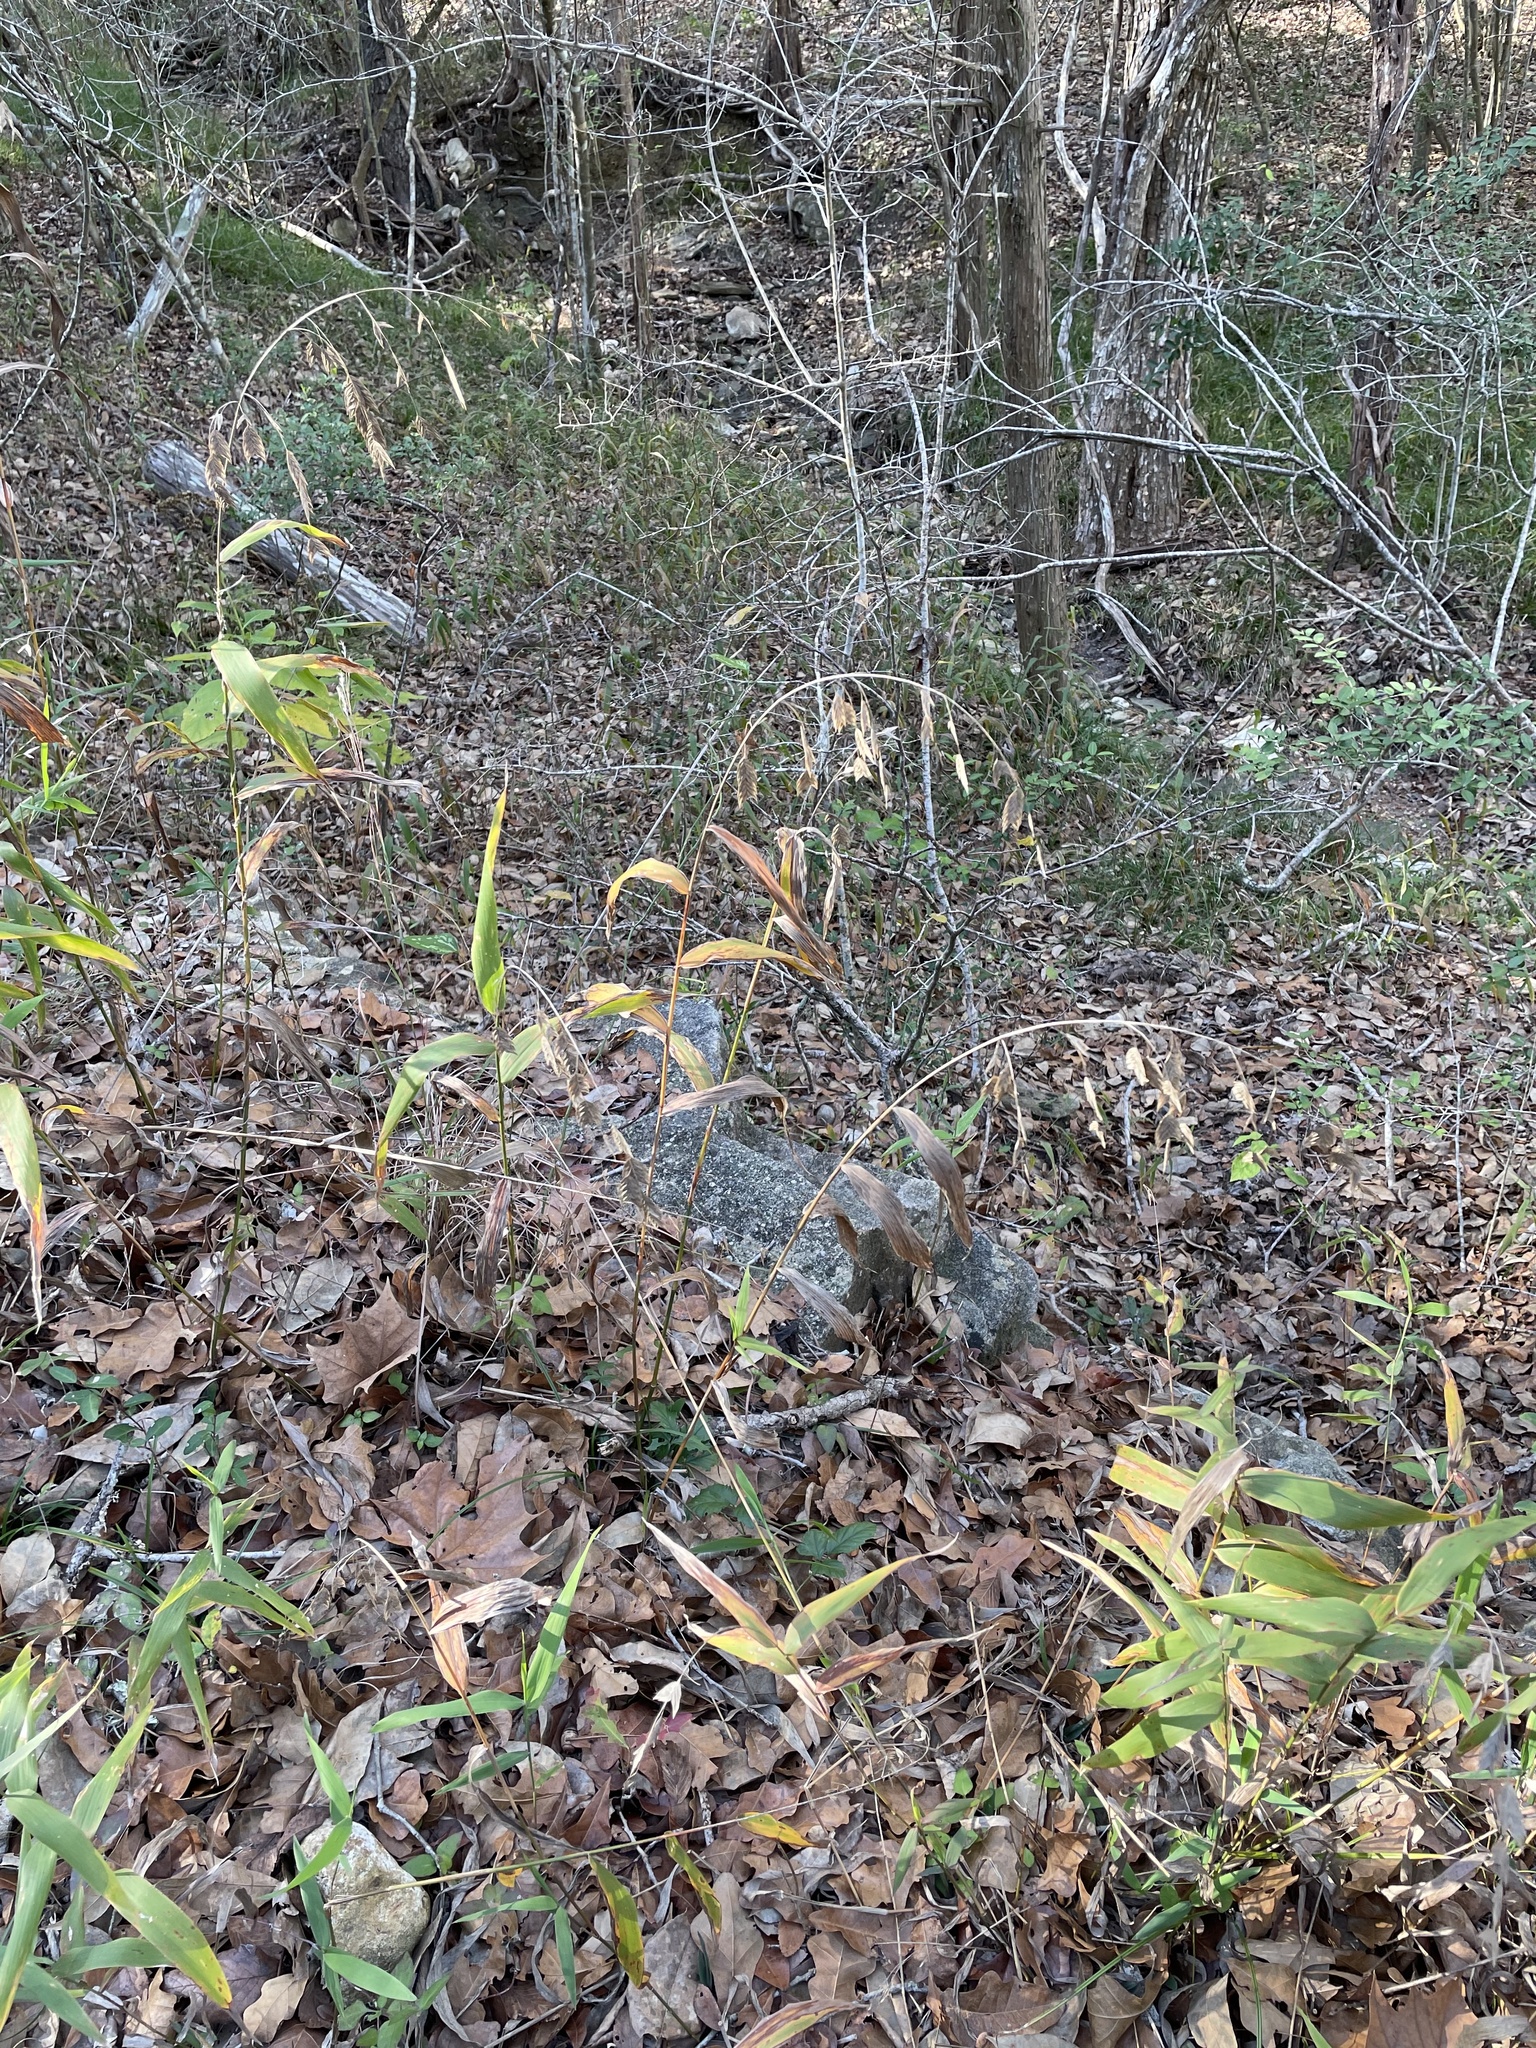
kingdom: Plantae
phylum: Tracheophyta
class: Liliopsida
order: Poales
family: Poaceae
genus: Chasmanthium
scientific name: Chasmanthium latifolium
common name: Broad-leaved chasmanthium
